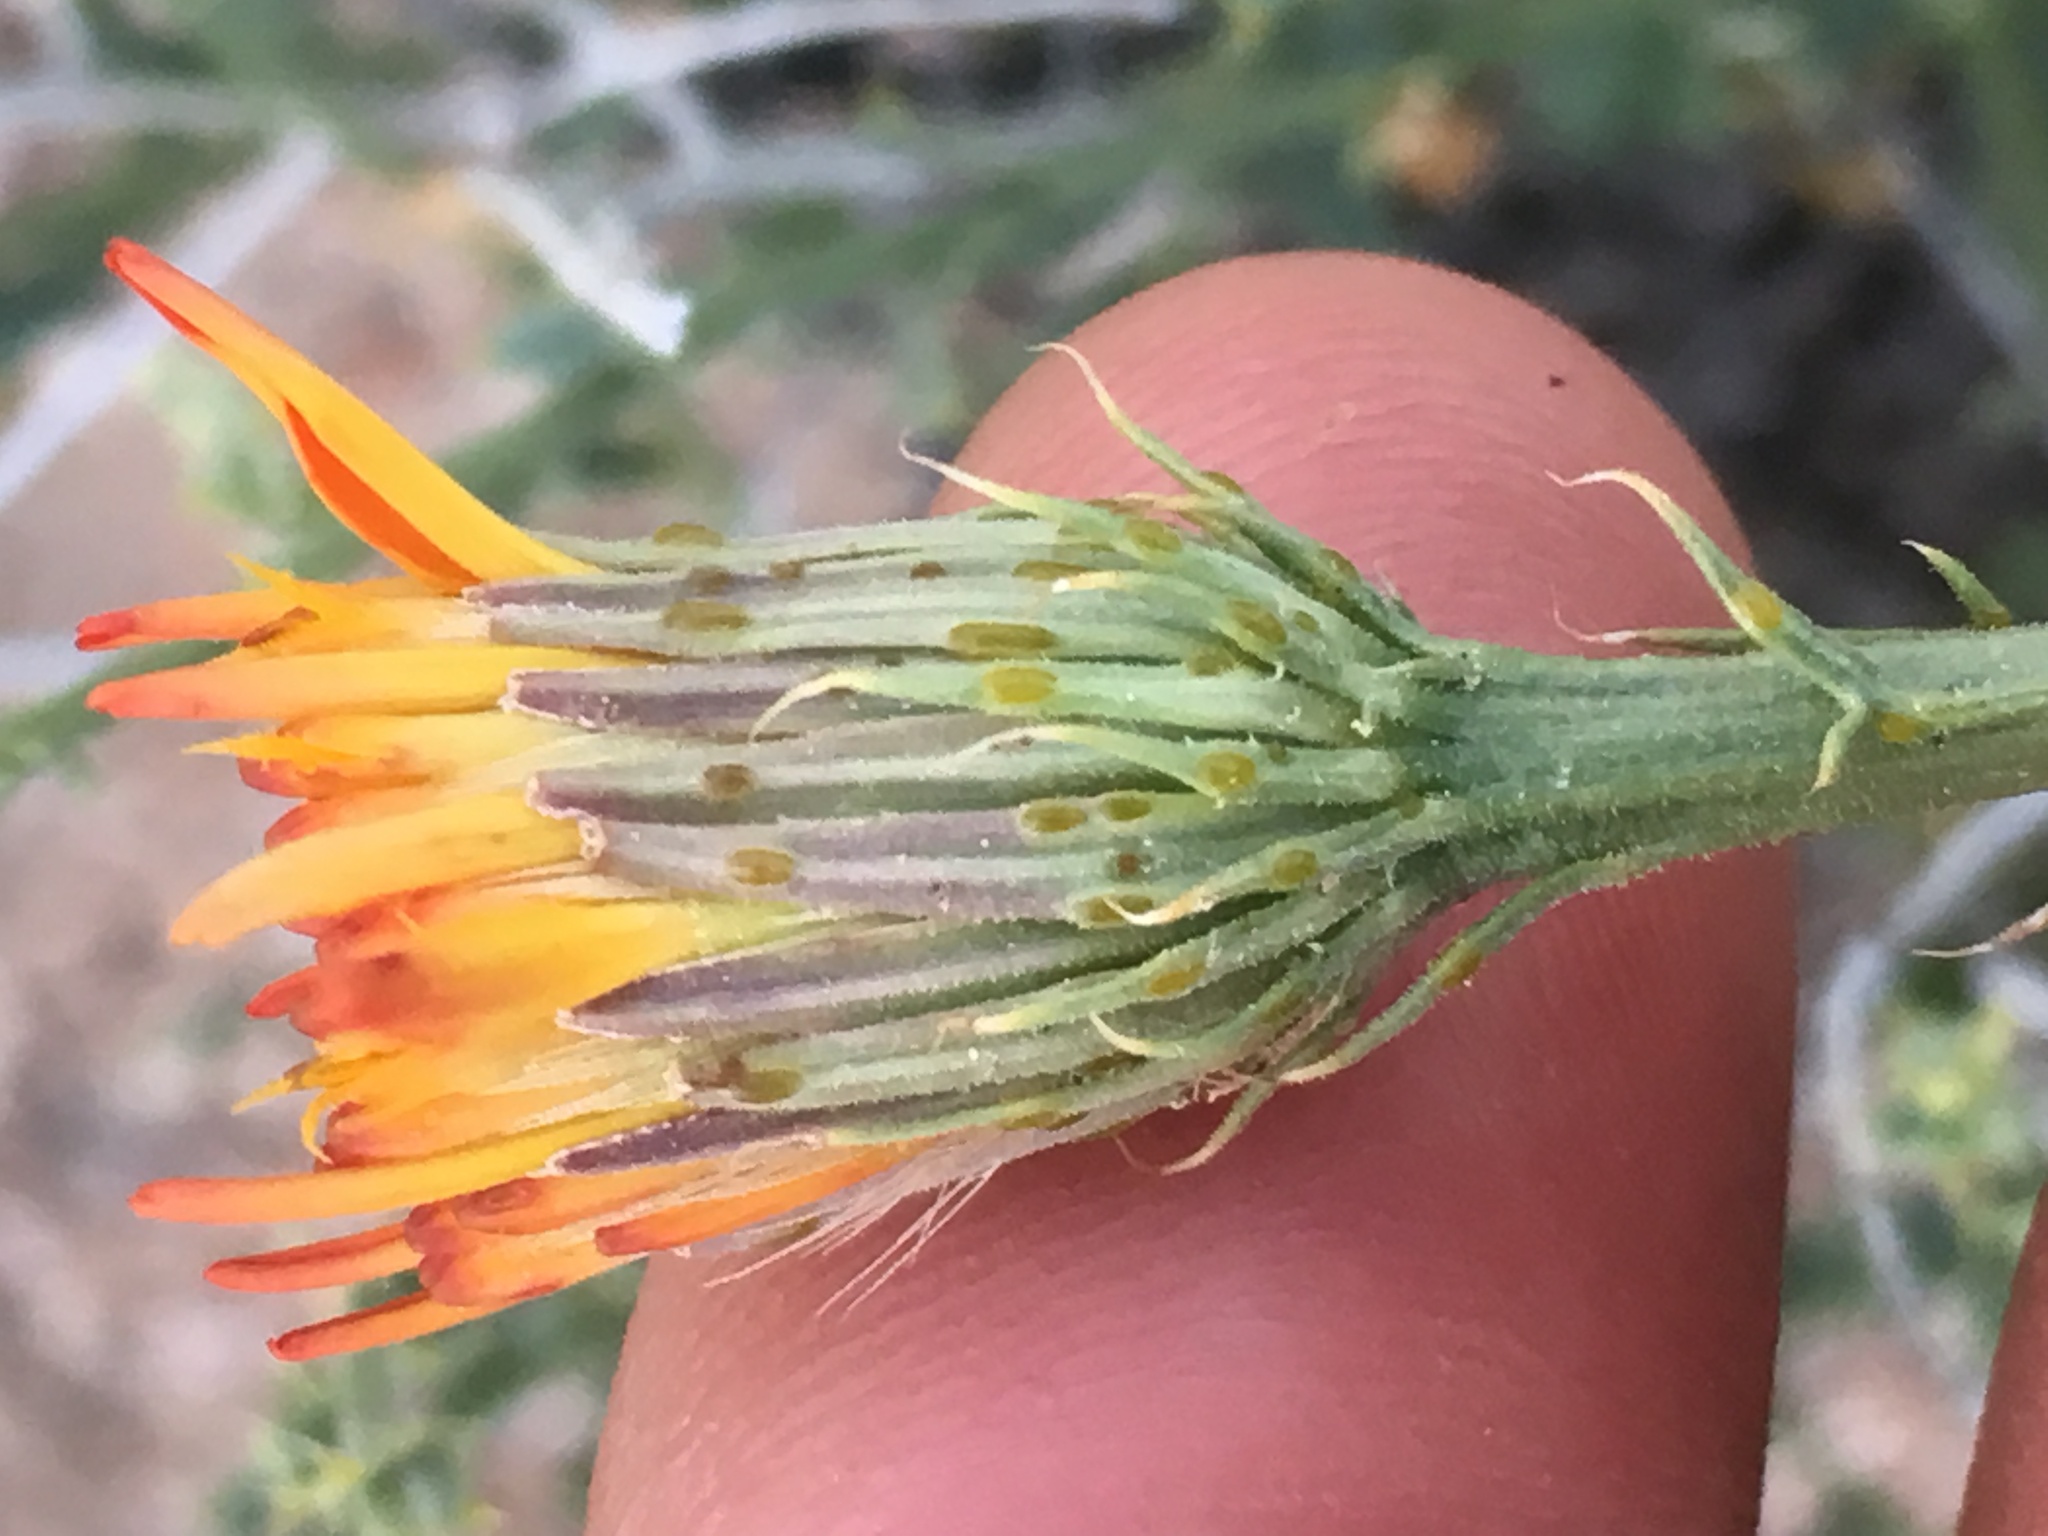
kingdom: Plantae
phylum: Tracheophyta
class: Magnoliopsida
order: Asterales
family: Asteraceae
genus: Adenophyllum
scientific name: Adenophyllum cooperi
